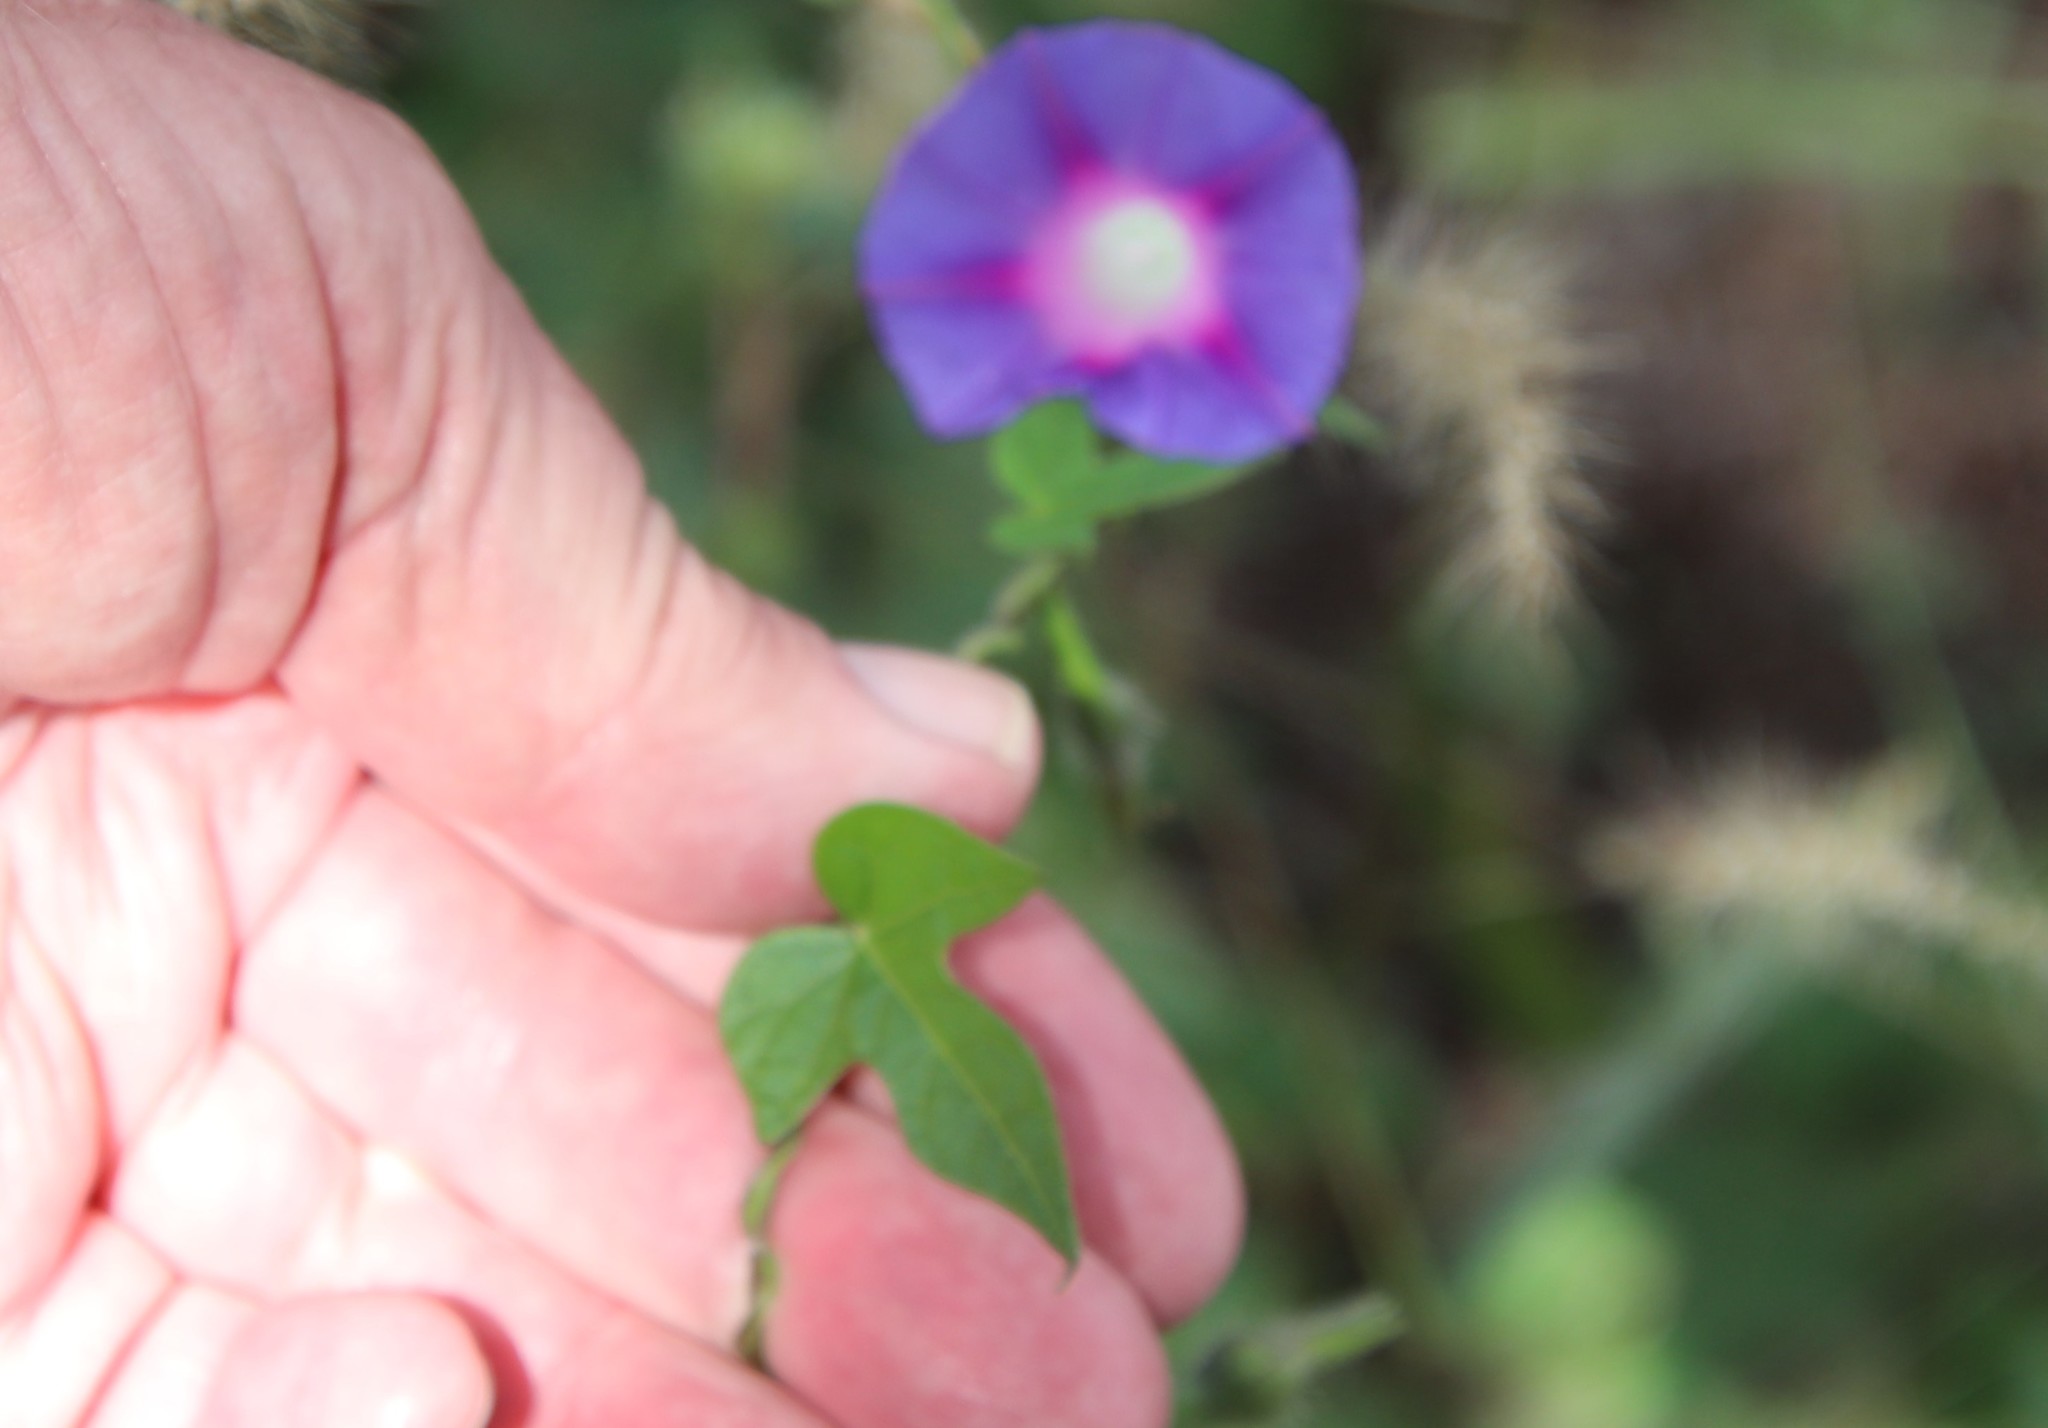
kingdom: Plantae
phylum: Tracheophyta
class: Magnoliopsida
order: Solanales
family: Convolvulaceae
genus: Ipomoea
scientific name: Ipomoea purpurea
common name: Common morning-glory
